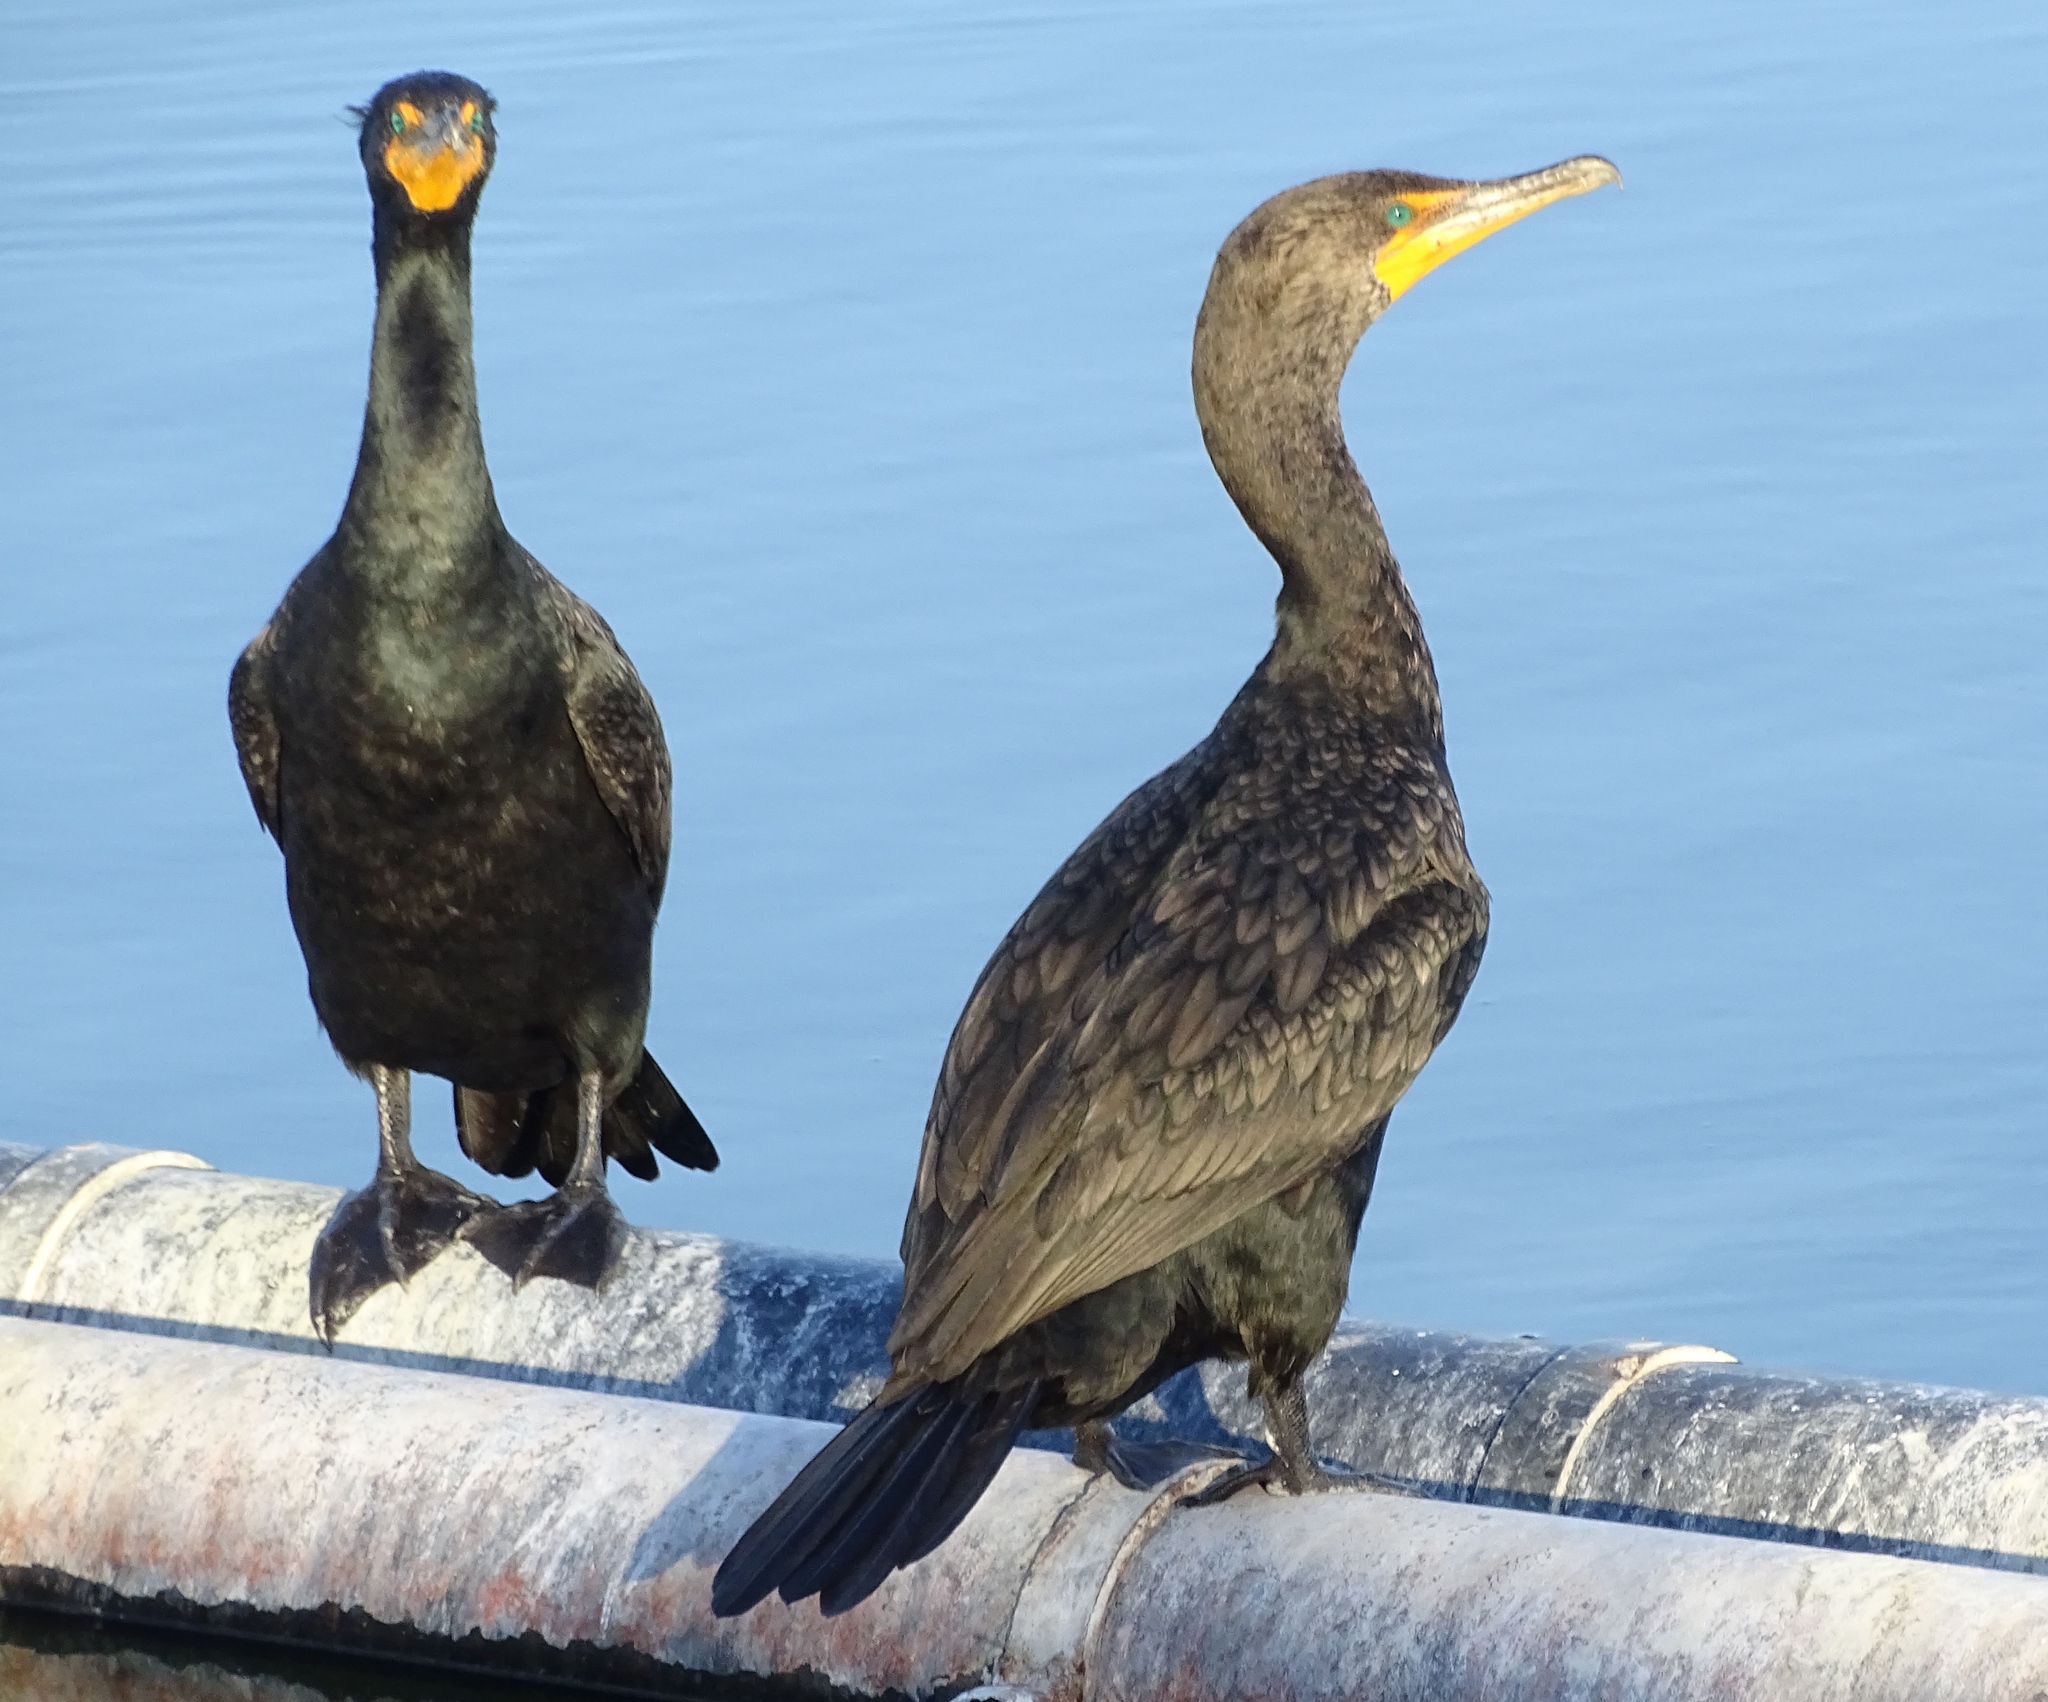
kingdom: Animalia
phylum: Chordata
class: Aves
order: Suliformes
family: Phalacrocoracidae
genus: Phalacrocorax
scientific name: Phalacrocorax auritus
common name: Double-crested cormorant
